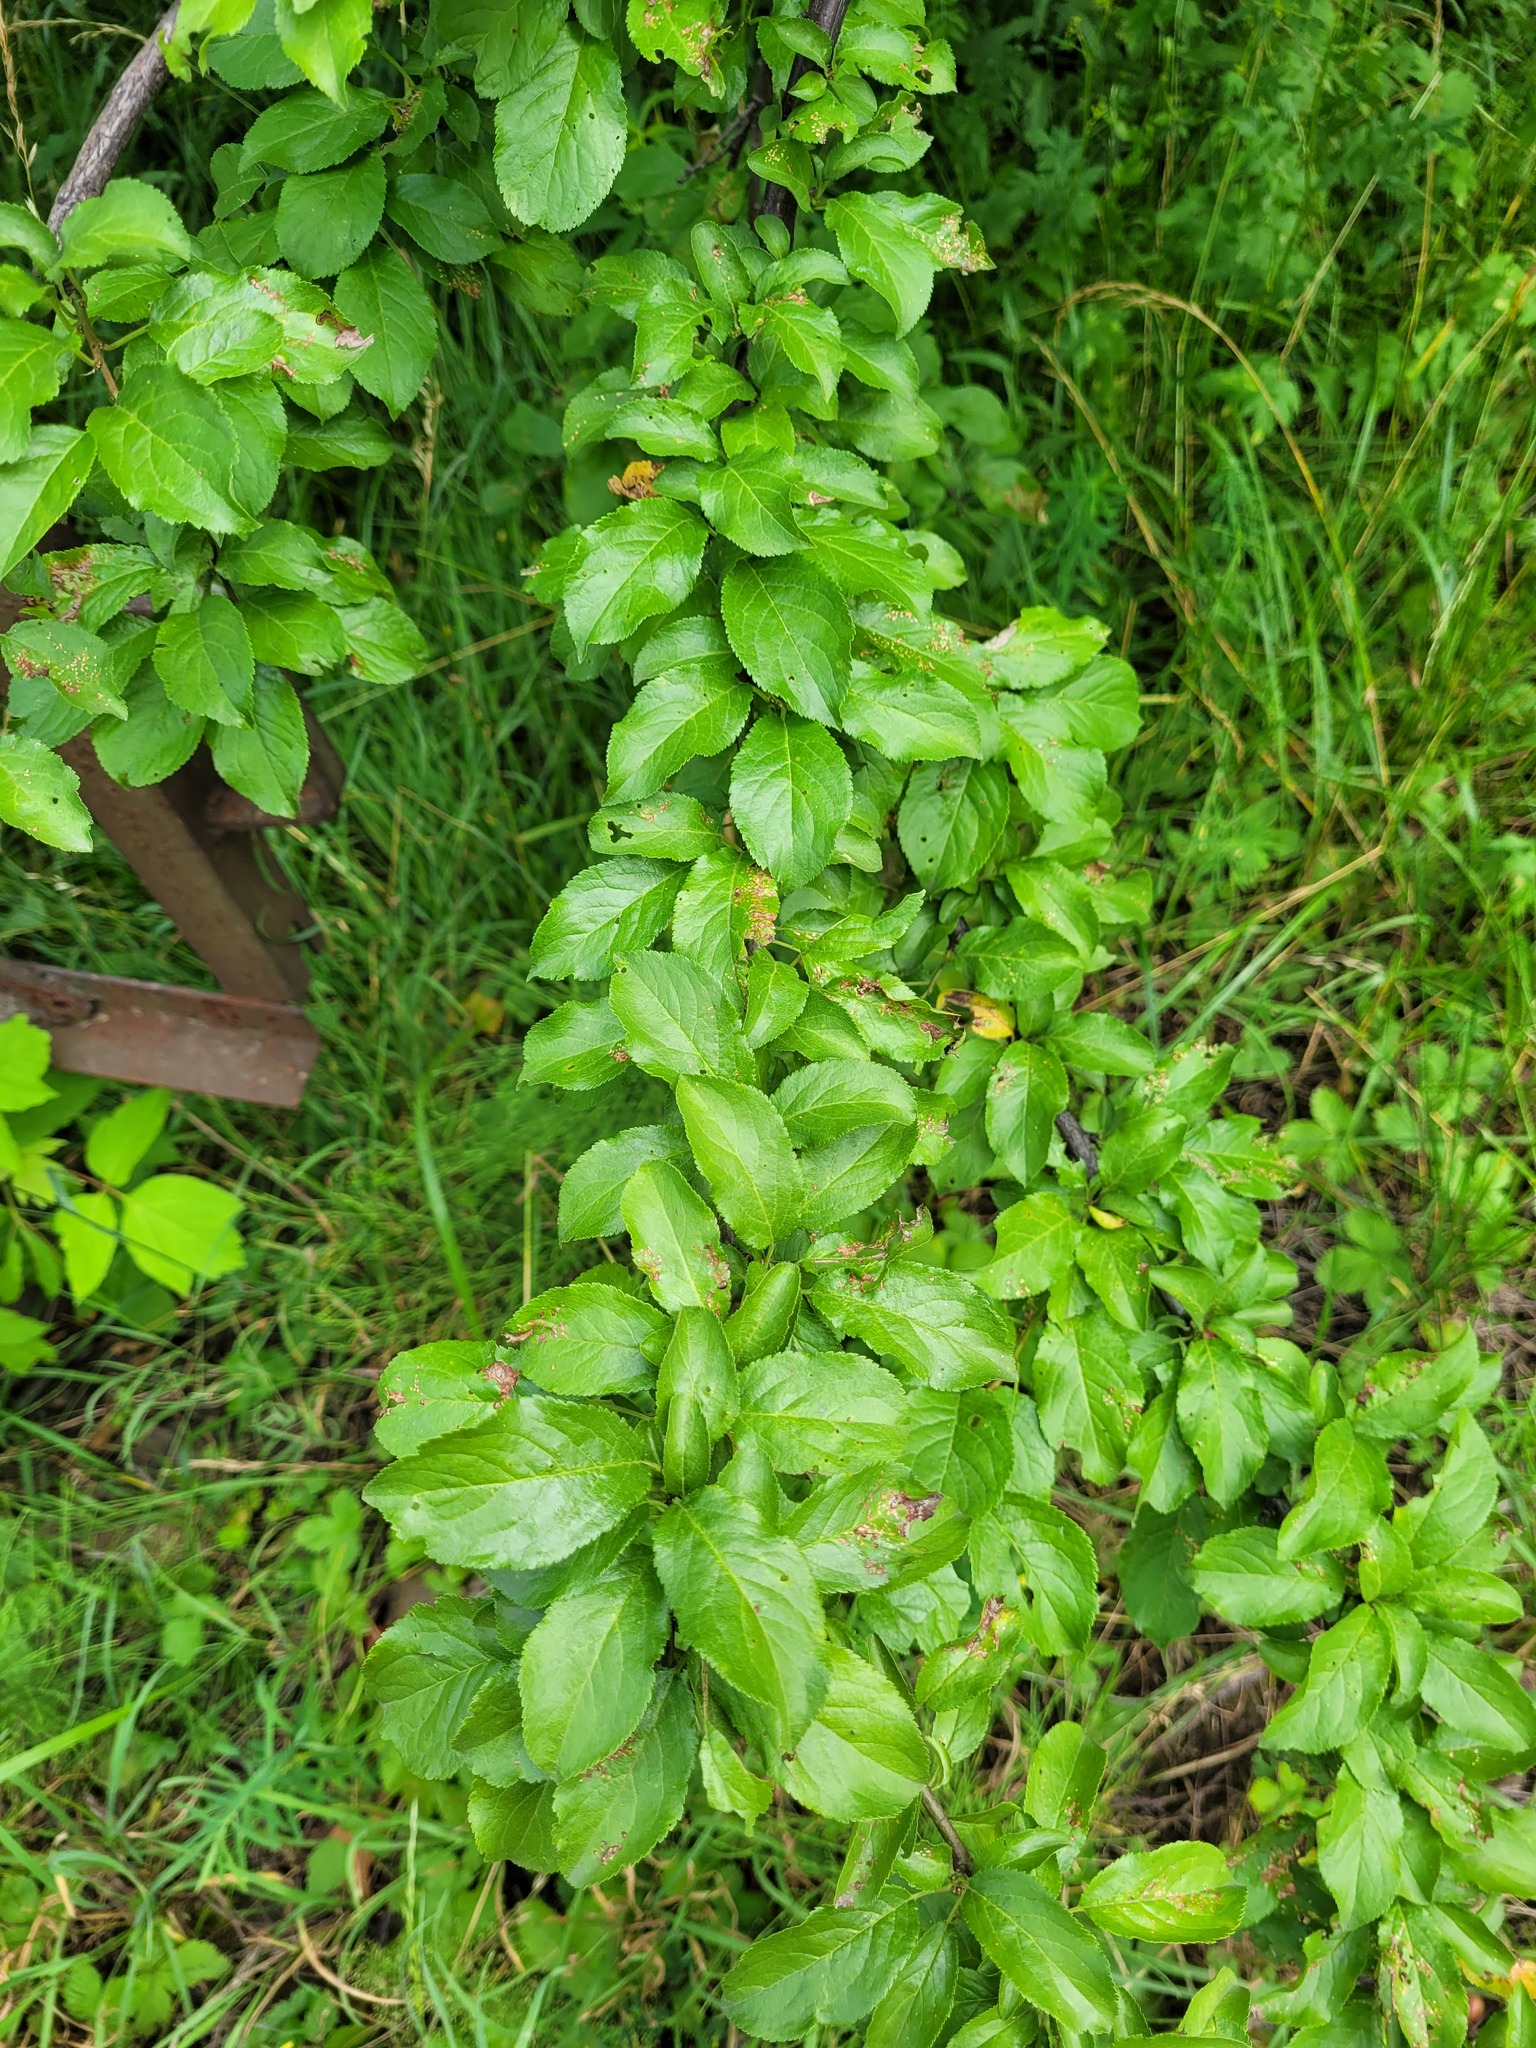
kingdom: Plantae
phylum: Tracheophyta
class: Magnoliopsida
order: Rosales
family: Rosaceae
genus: Prunus
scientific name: Prunus cerasifera
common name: Cherry plum
